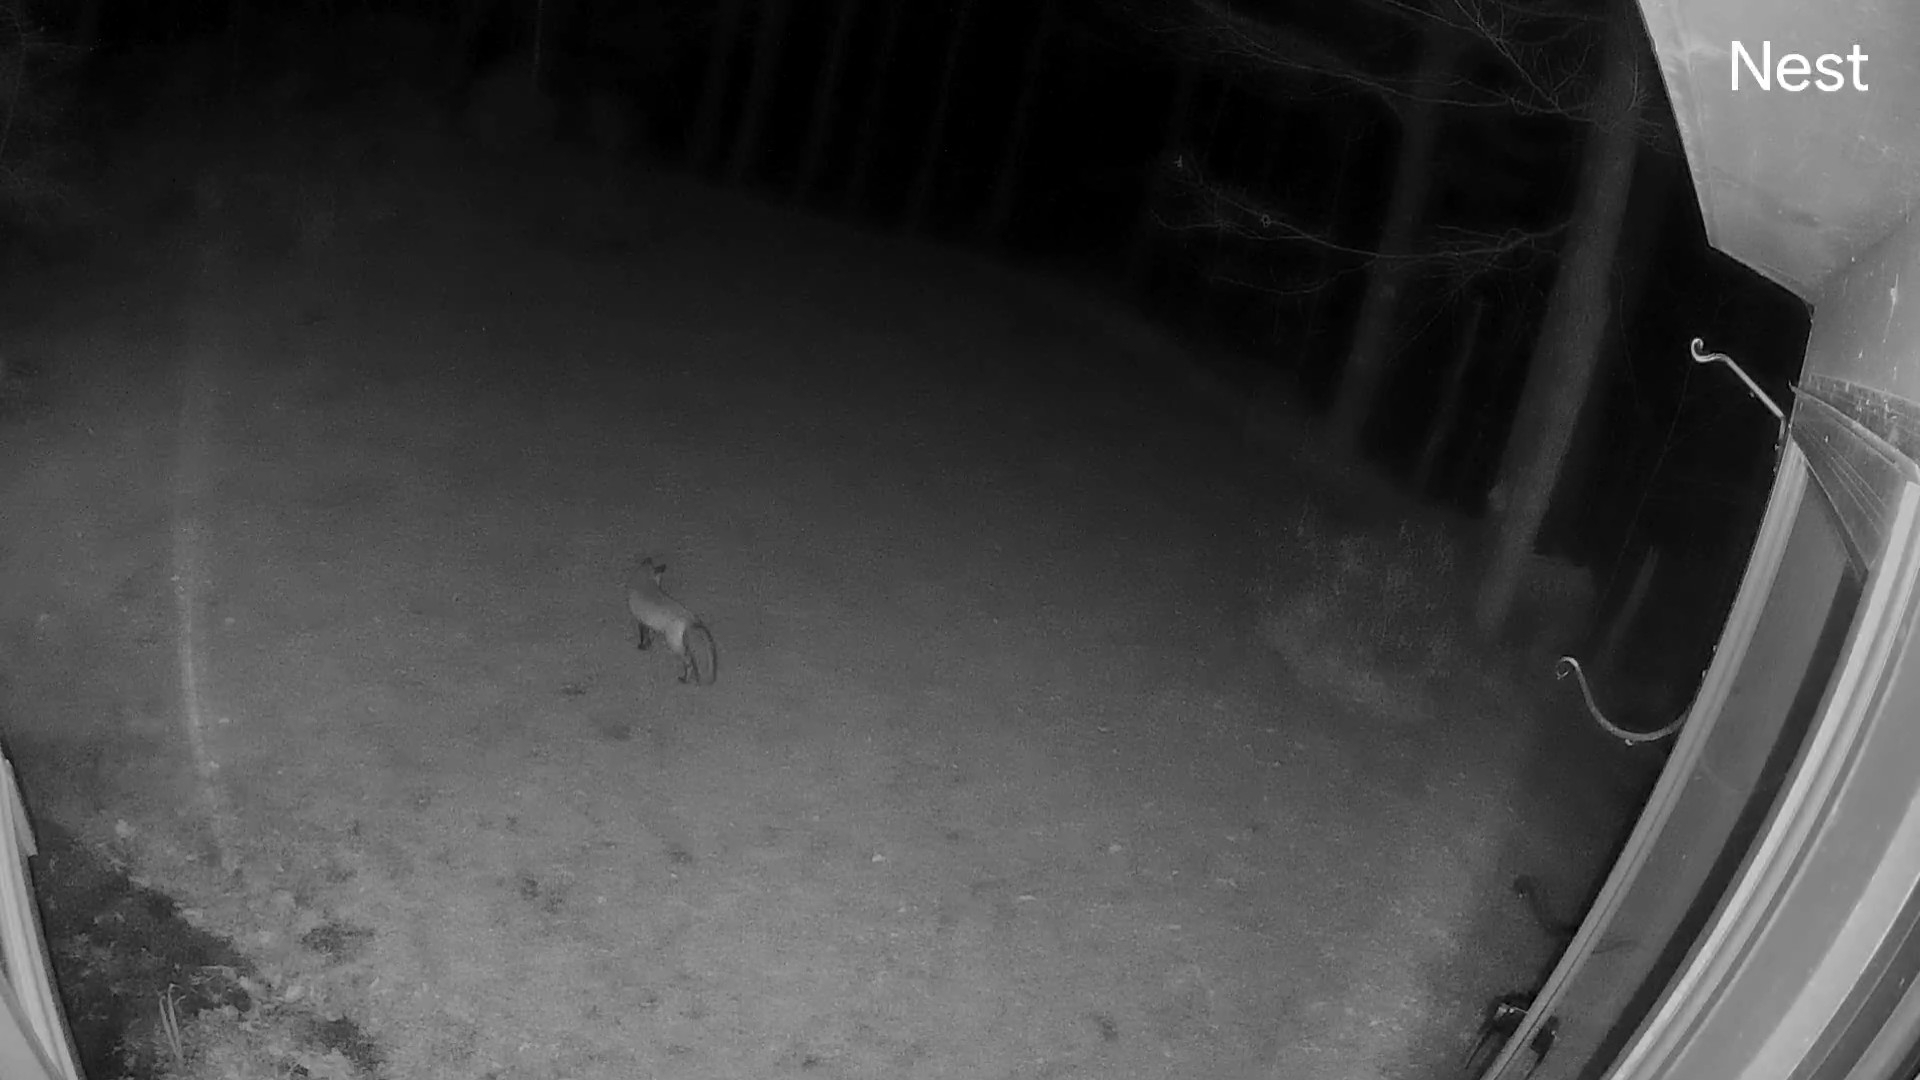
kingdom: Animalia
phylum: Chordata
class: Mammalia
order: Carnivora
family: Canidae
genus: Vulpes
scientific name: Vulpes vulpes
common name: Red fox
